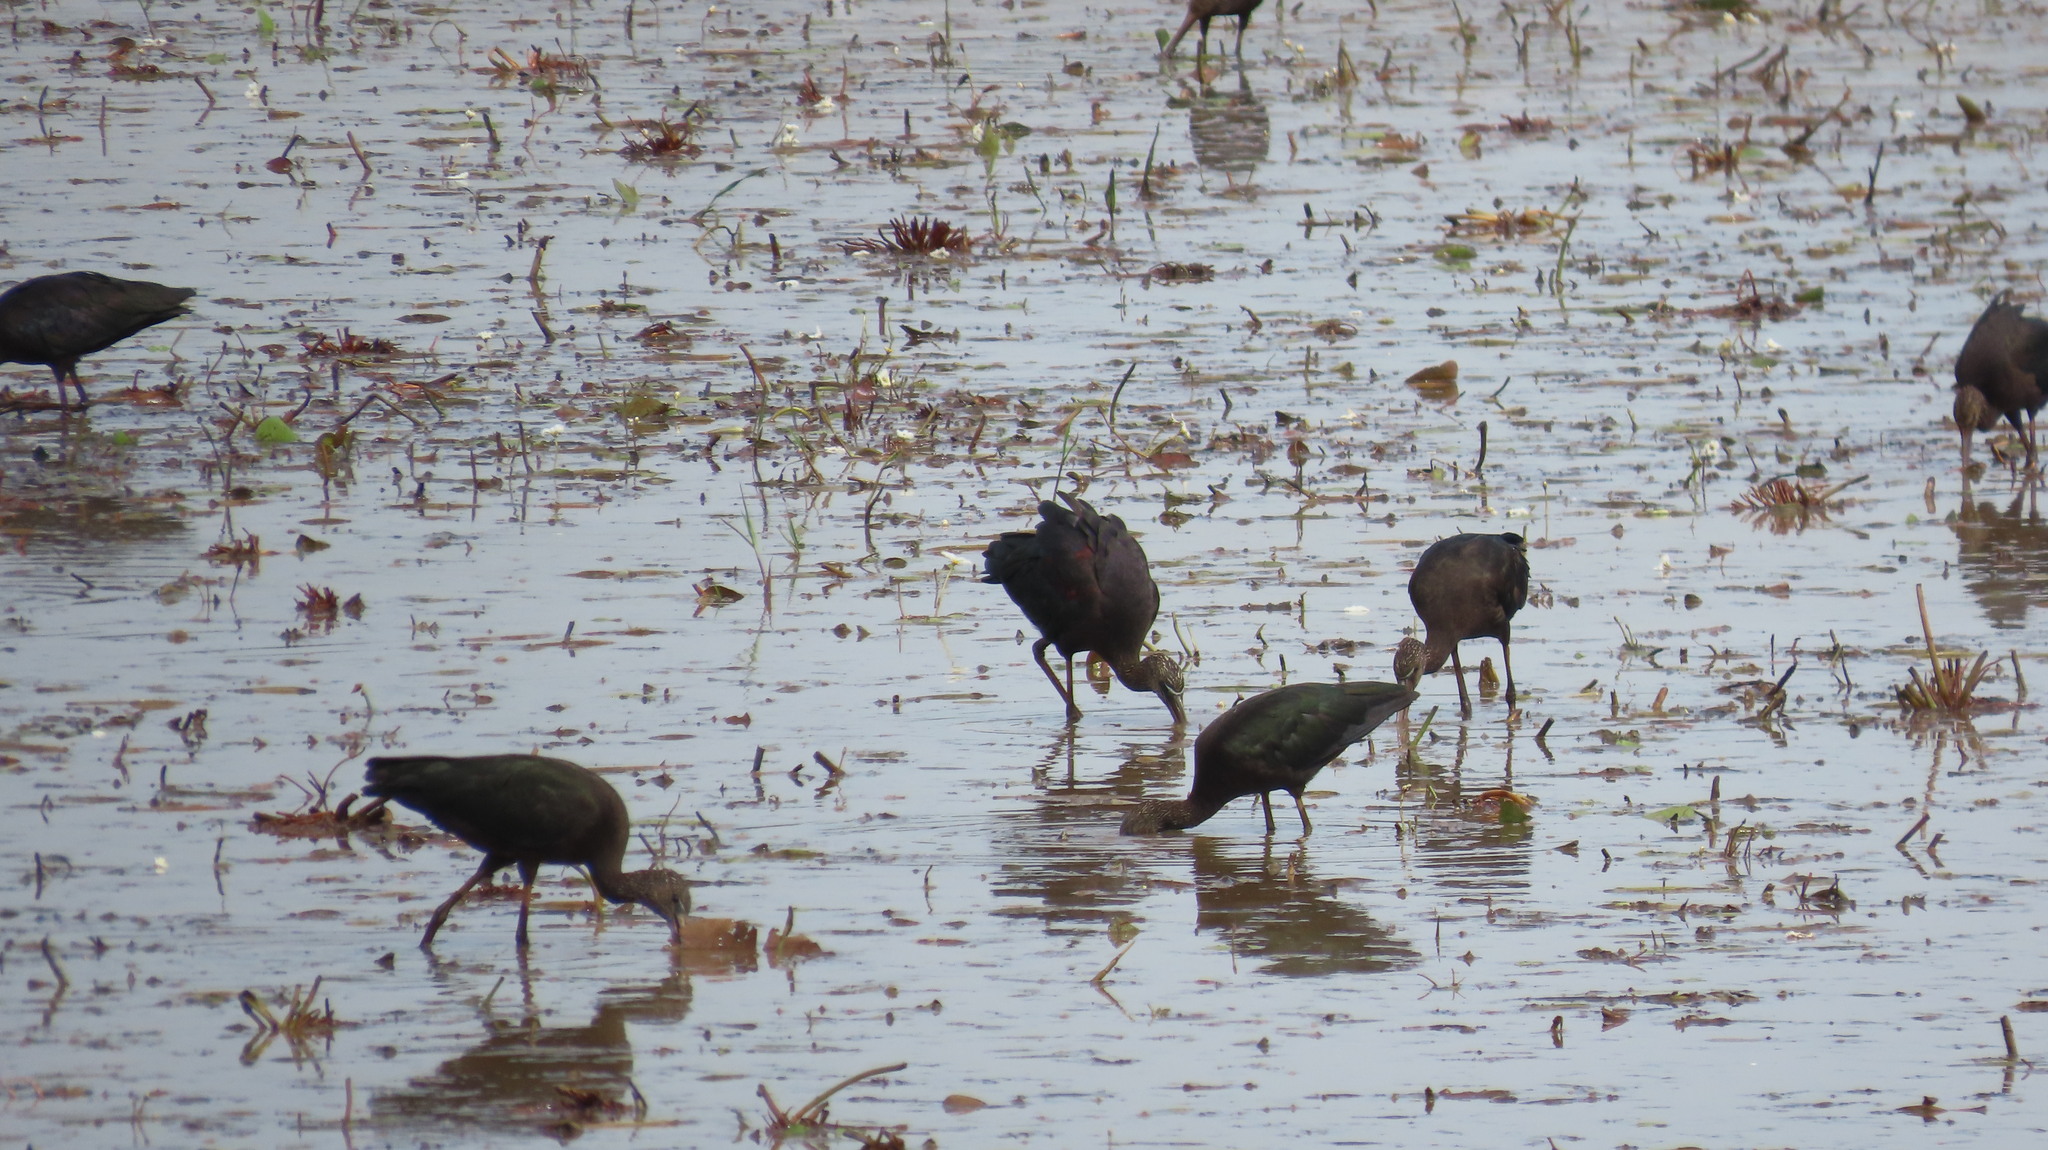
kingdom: Animalia
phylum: Chordata
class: Aves
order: Pelecaniformes
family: Threskiornithidae
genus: Plegadis
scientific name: Plegadis falcinellus
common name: Glossy ibis
